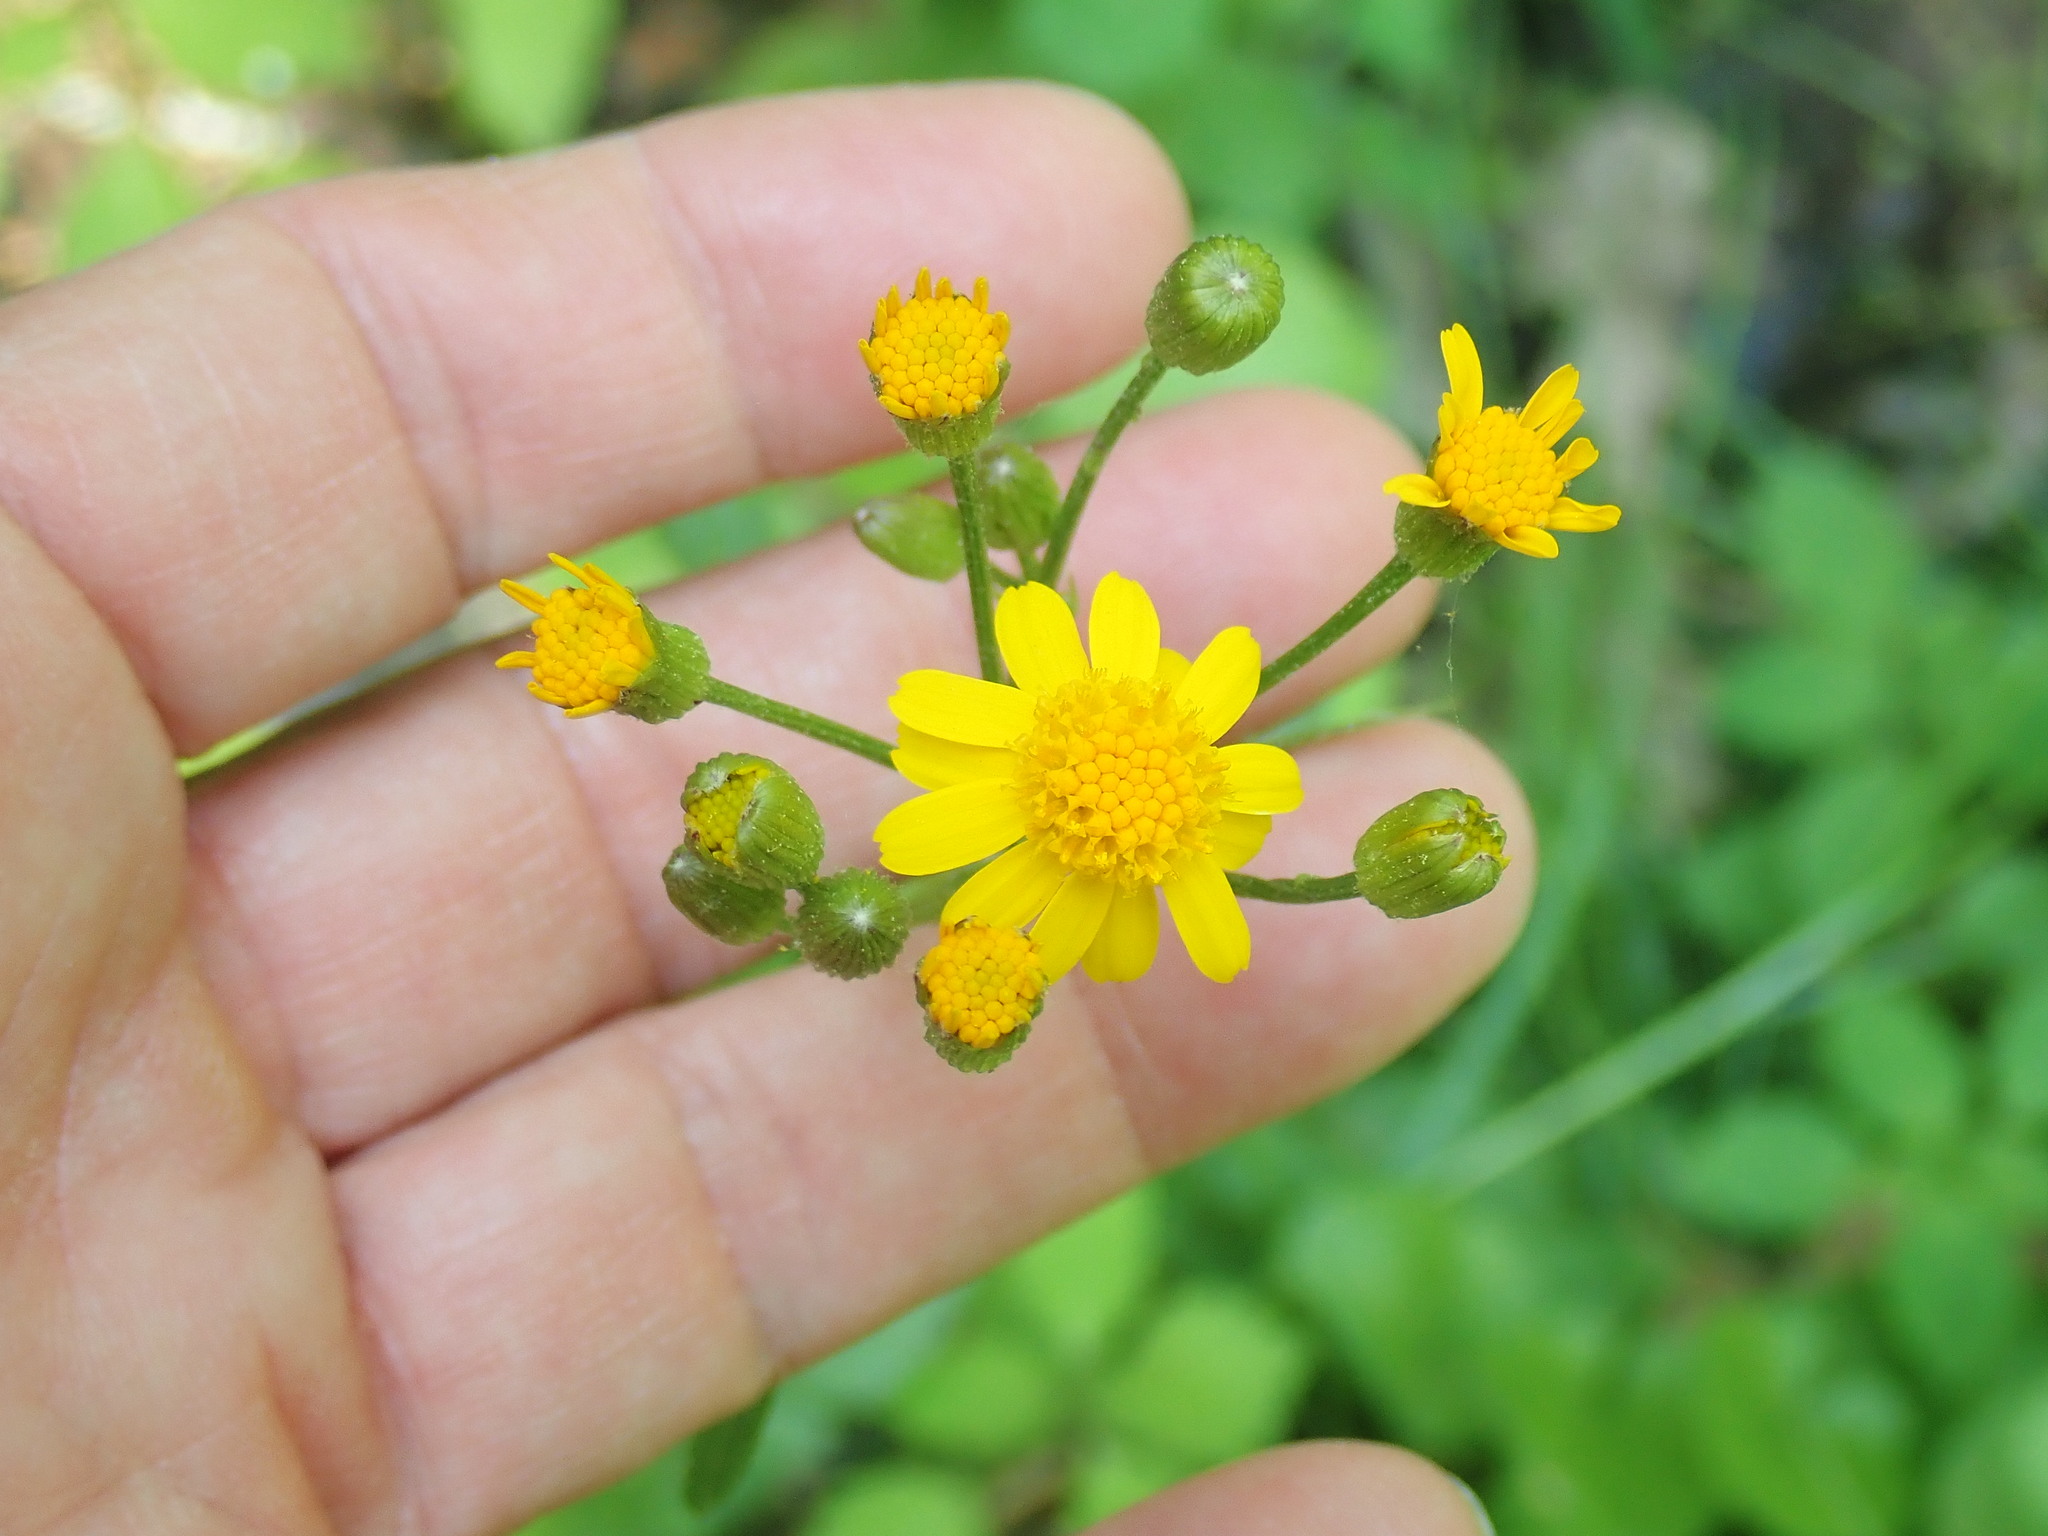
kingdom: Plantae
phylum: Tracheophyta
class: Magnoliopsida
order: Asterales
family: Asteraceae
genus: Packera
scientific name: Packera aurea
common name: Golden groundsel
